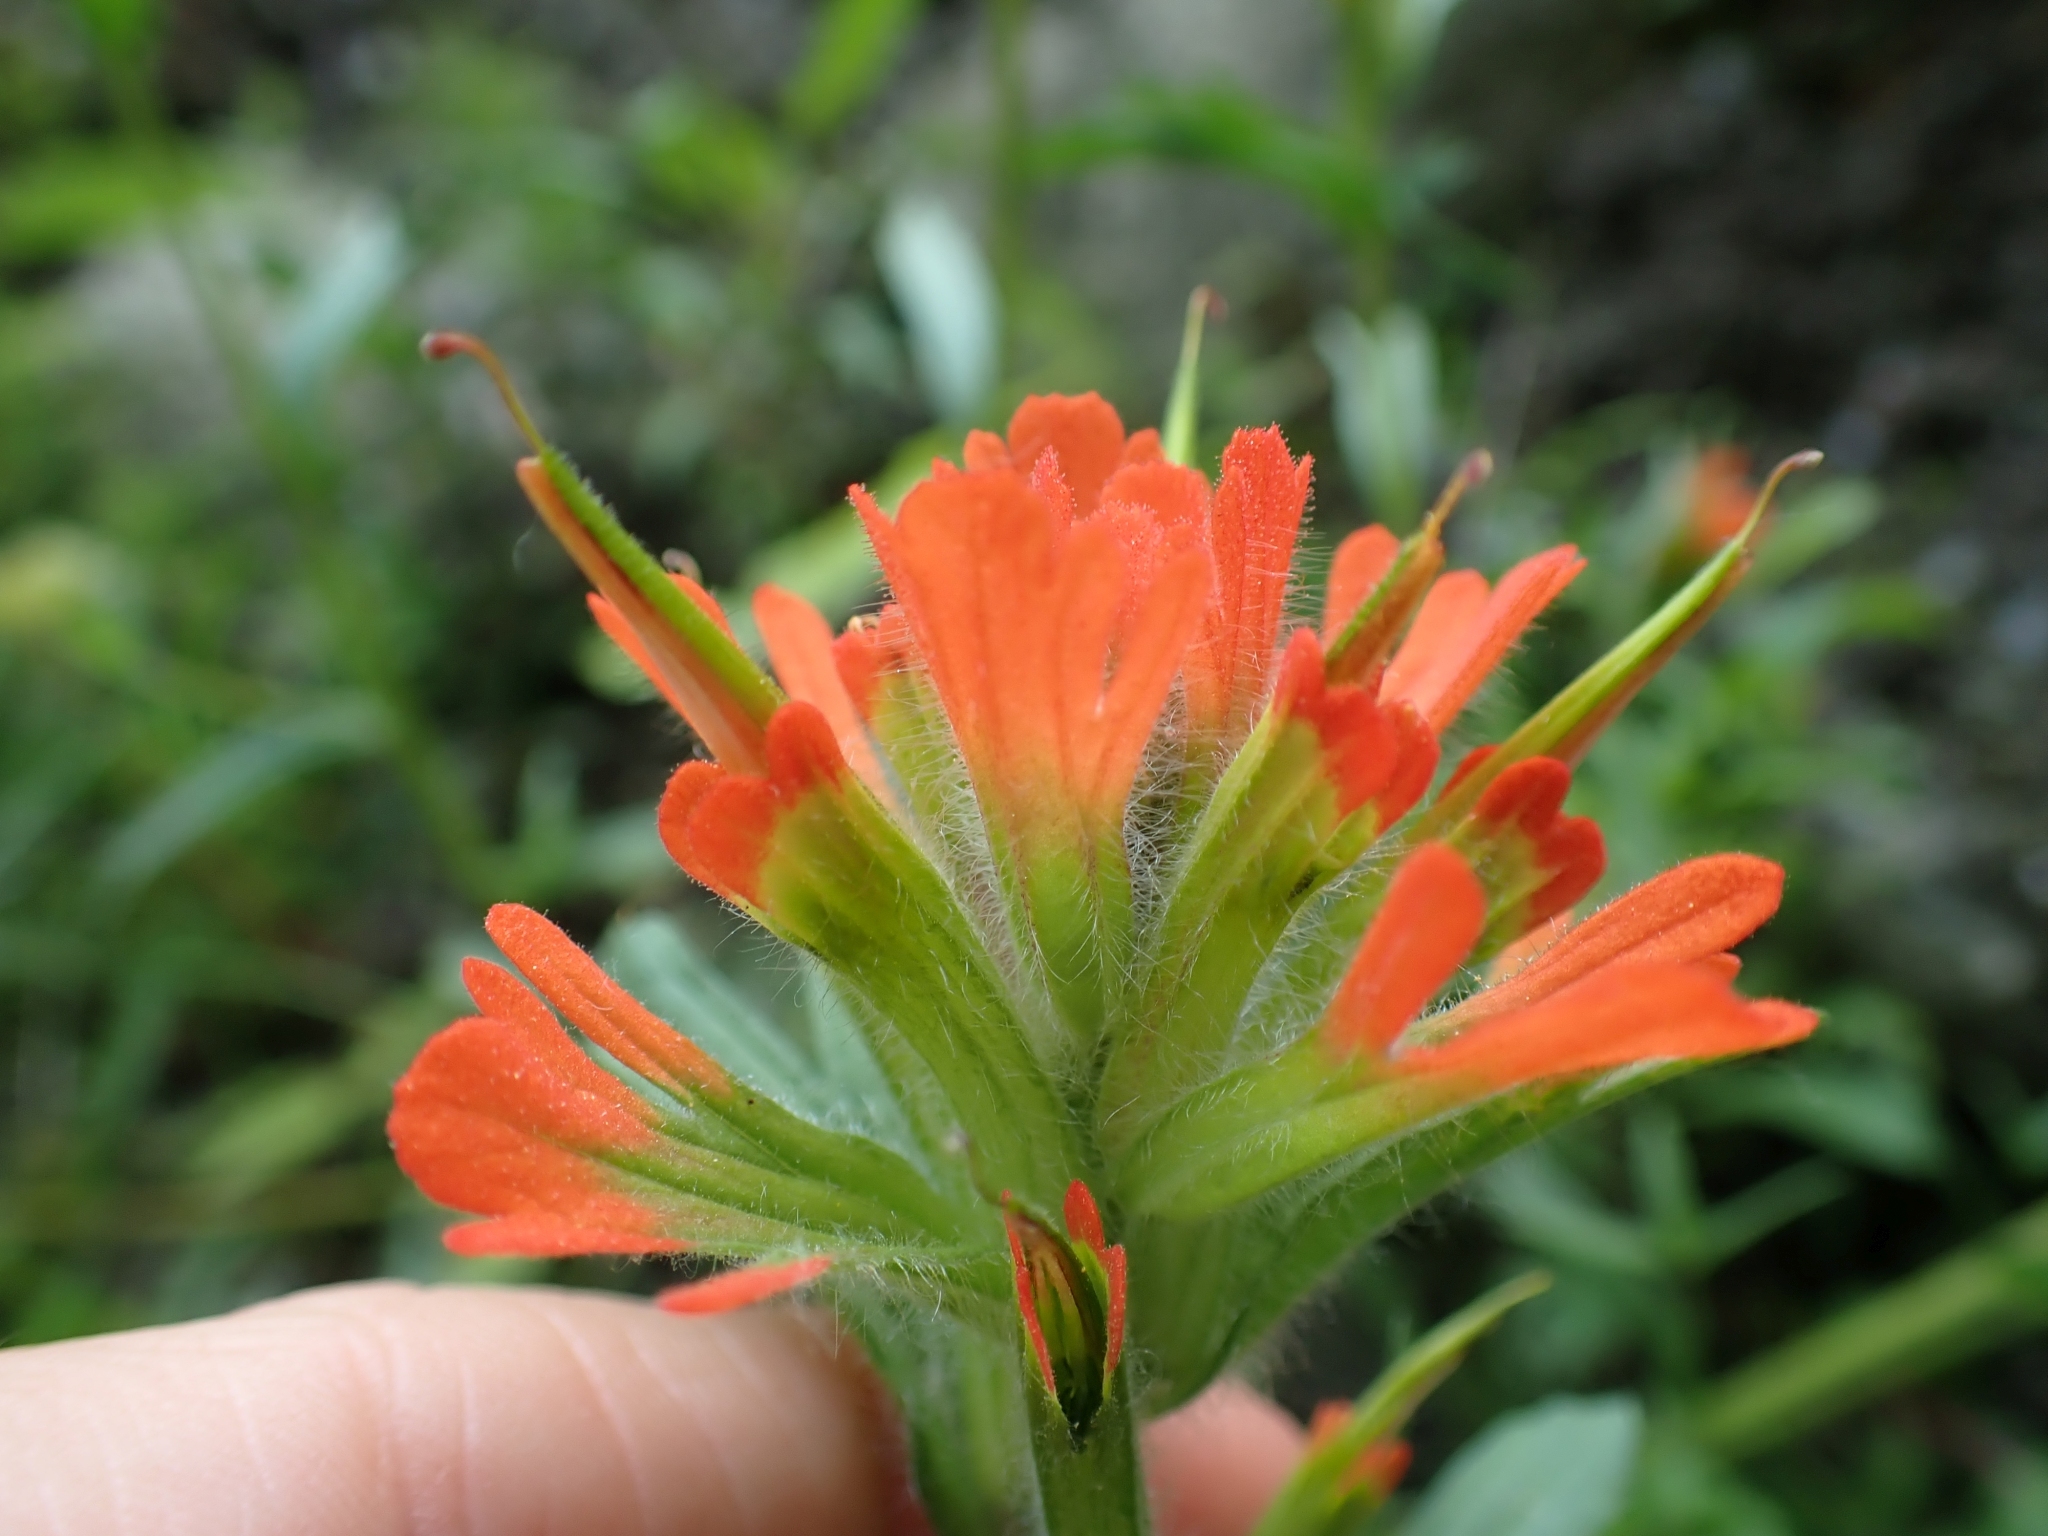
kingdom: Plantae
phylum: Tracheophyta
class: Magnoliopsida
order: Lamiales
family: Orobanchaceae
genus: Castilleja
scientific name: Castilleja hispida
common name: Bristly paintbrush
